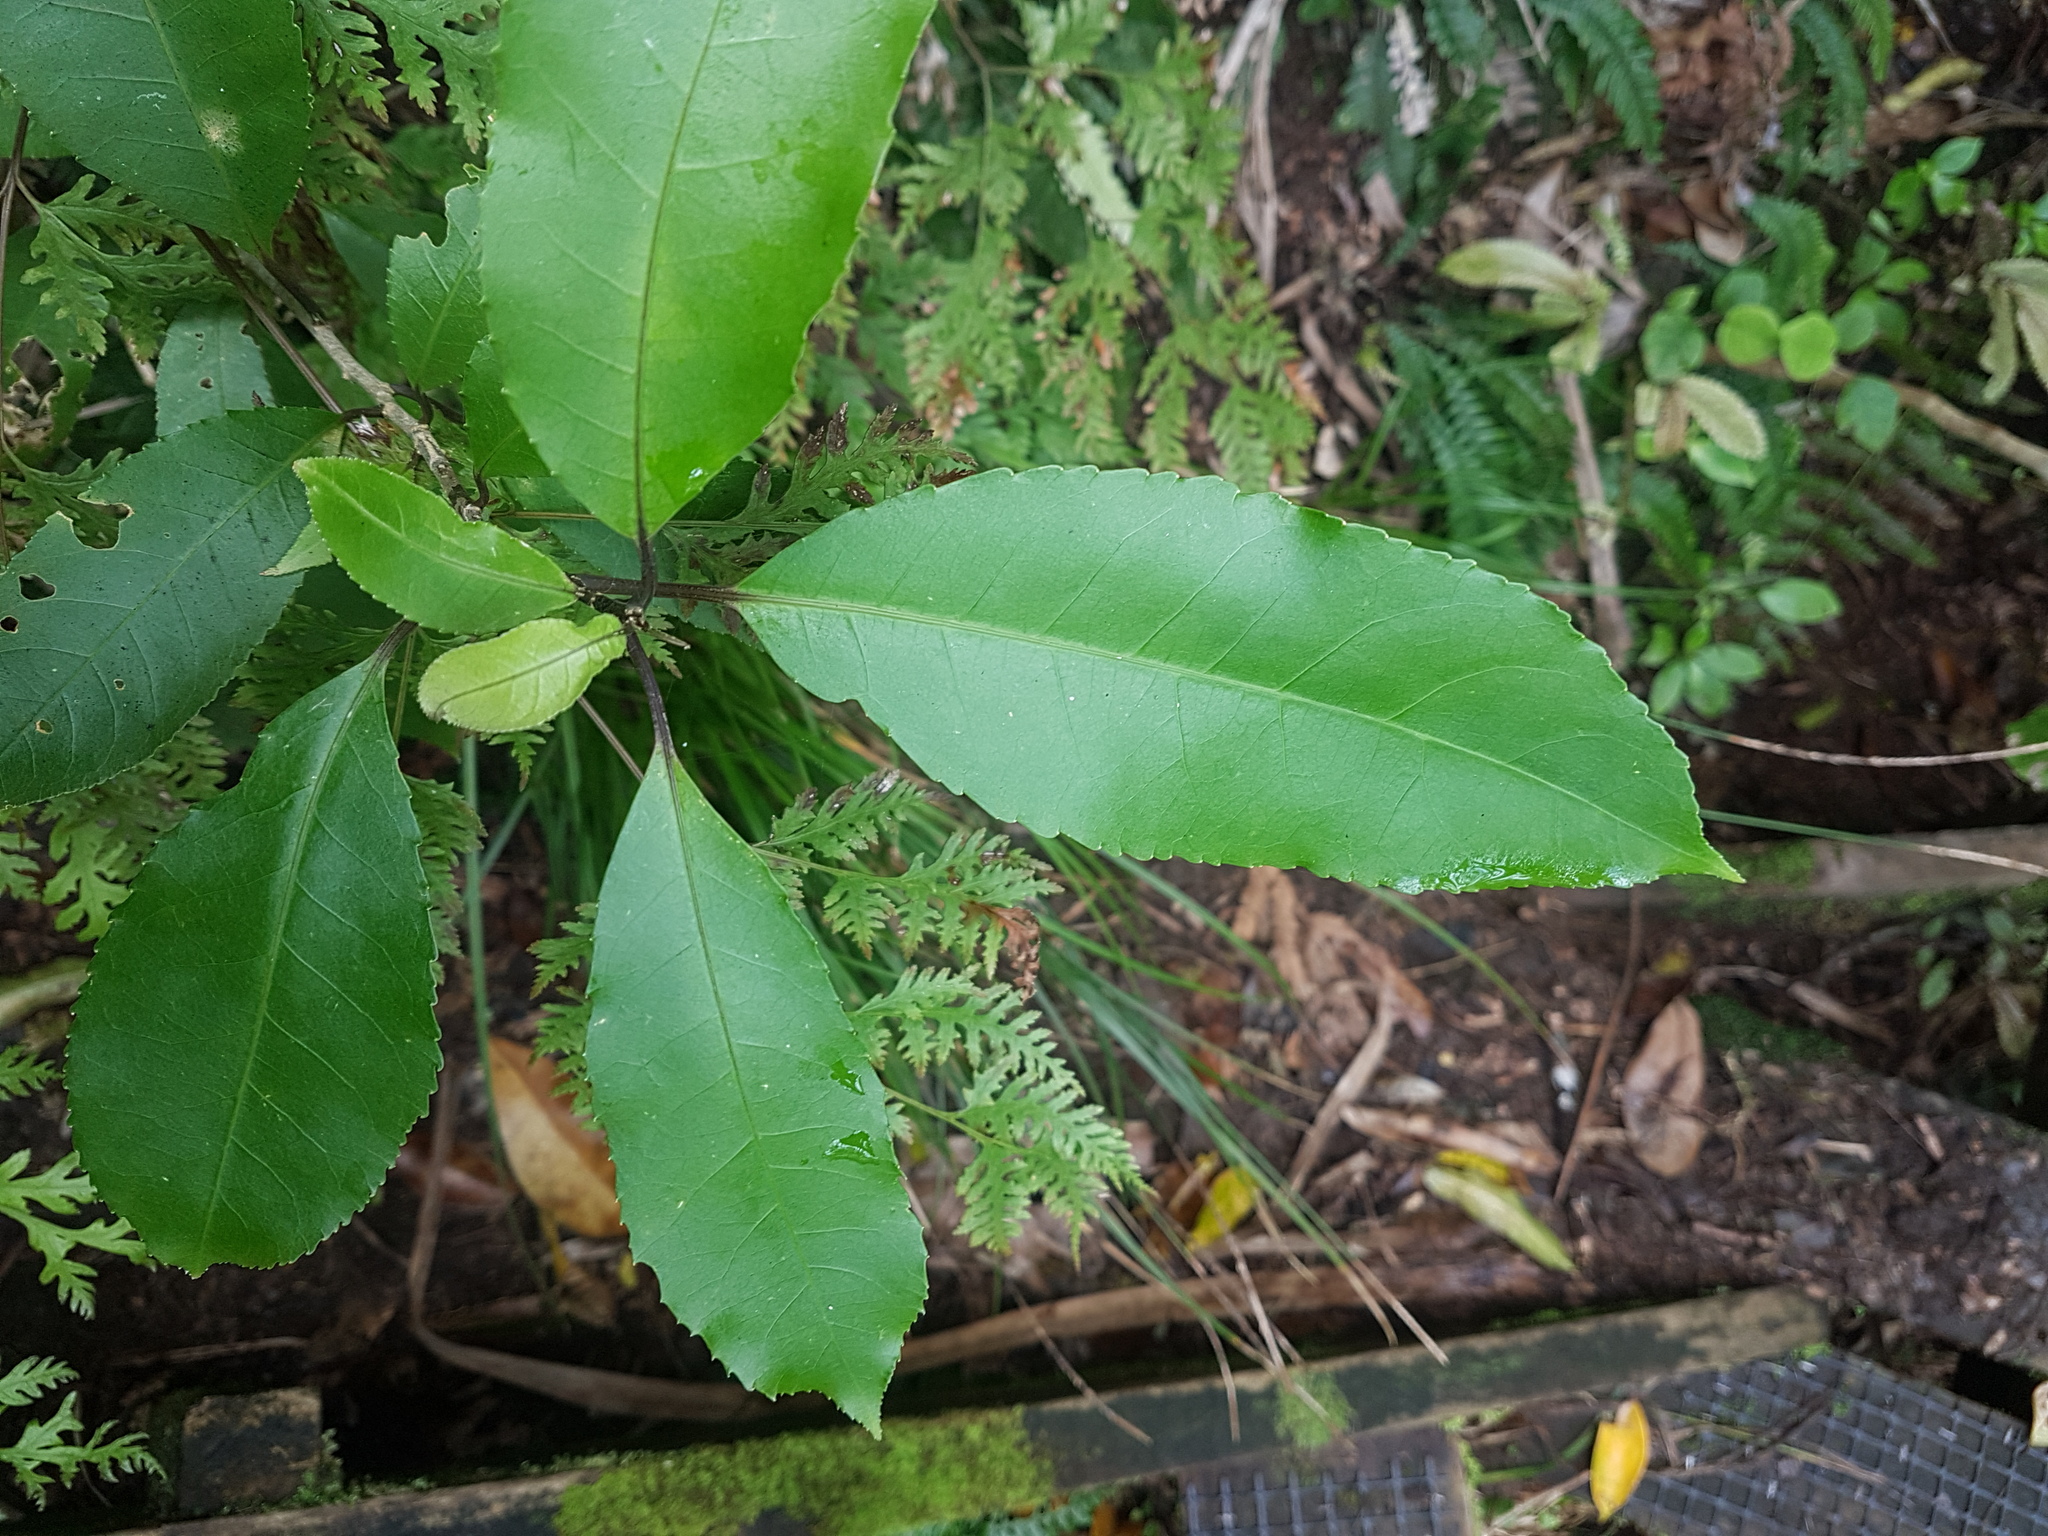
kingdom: Plantae
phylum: Tracheophyta
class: Magnoliopsida
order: Malpighiales
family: Violaceae
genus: Melicytus
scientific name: Melicytus ramiflorus
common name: Mahoe
